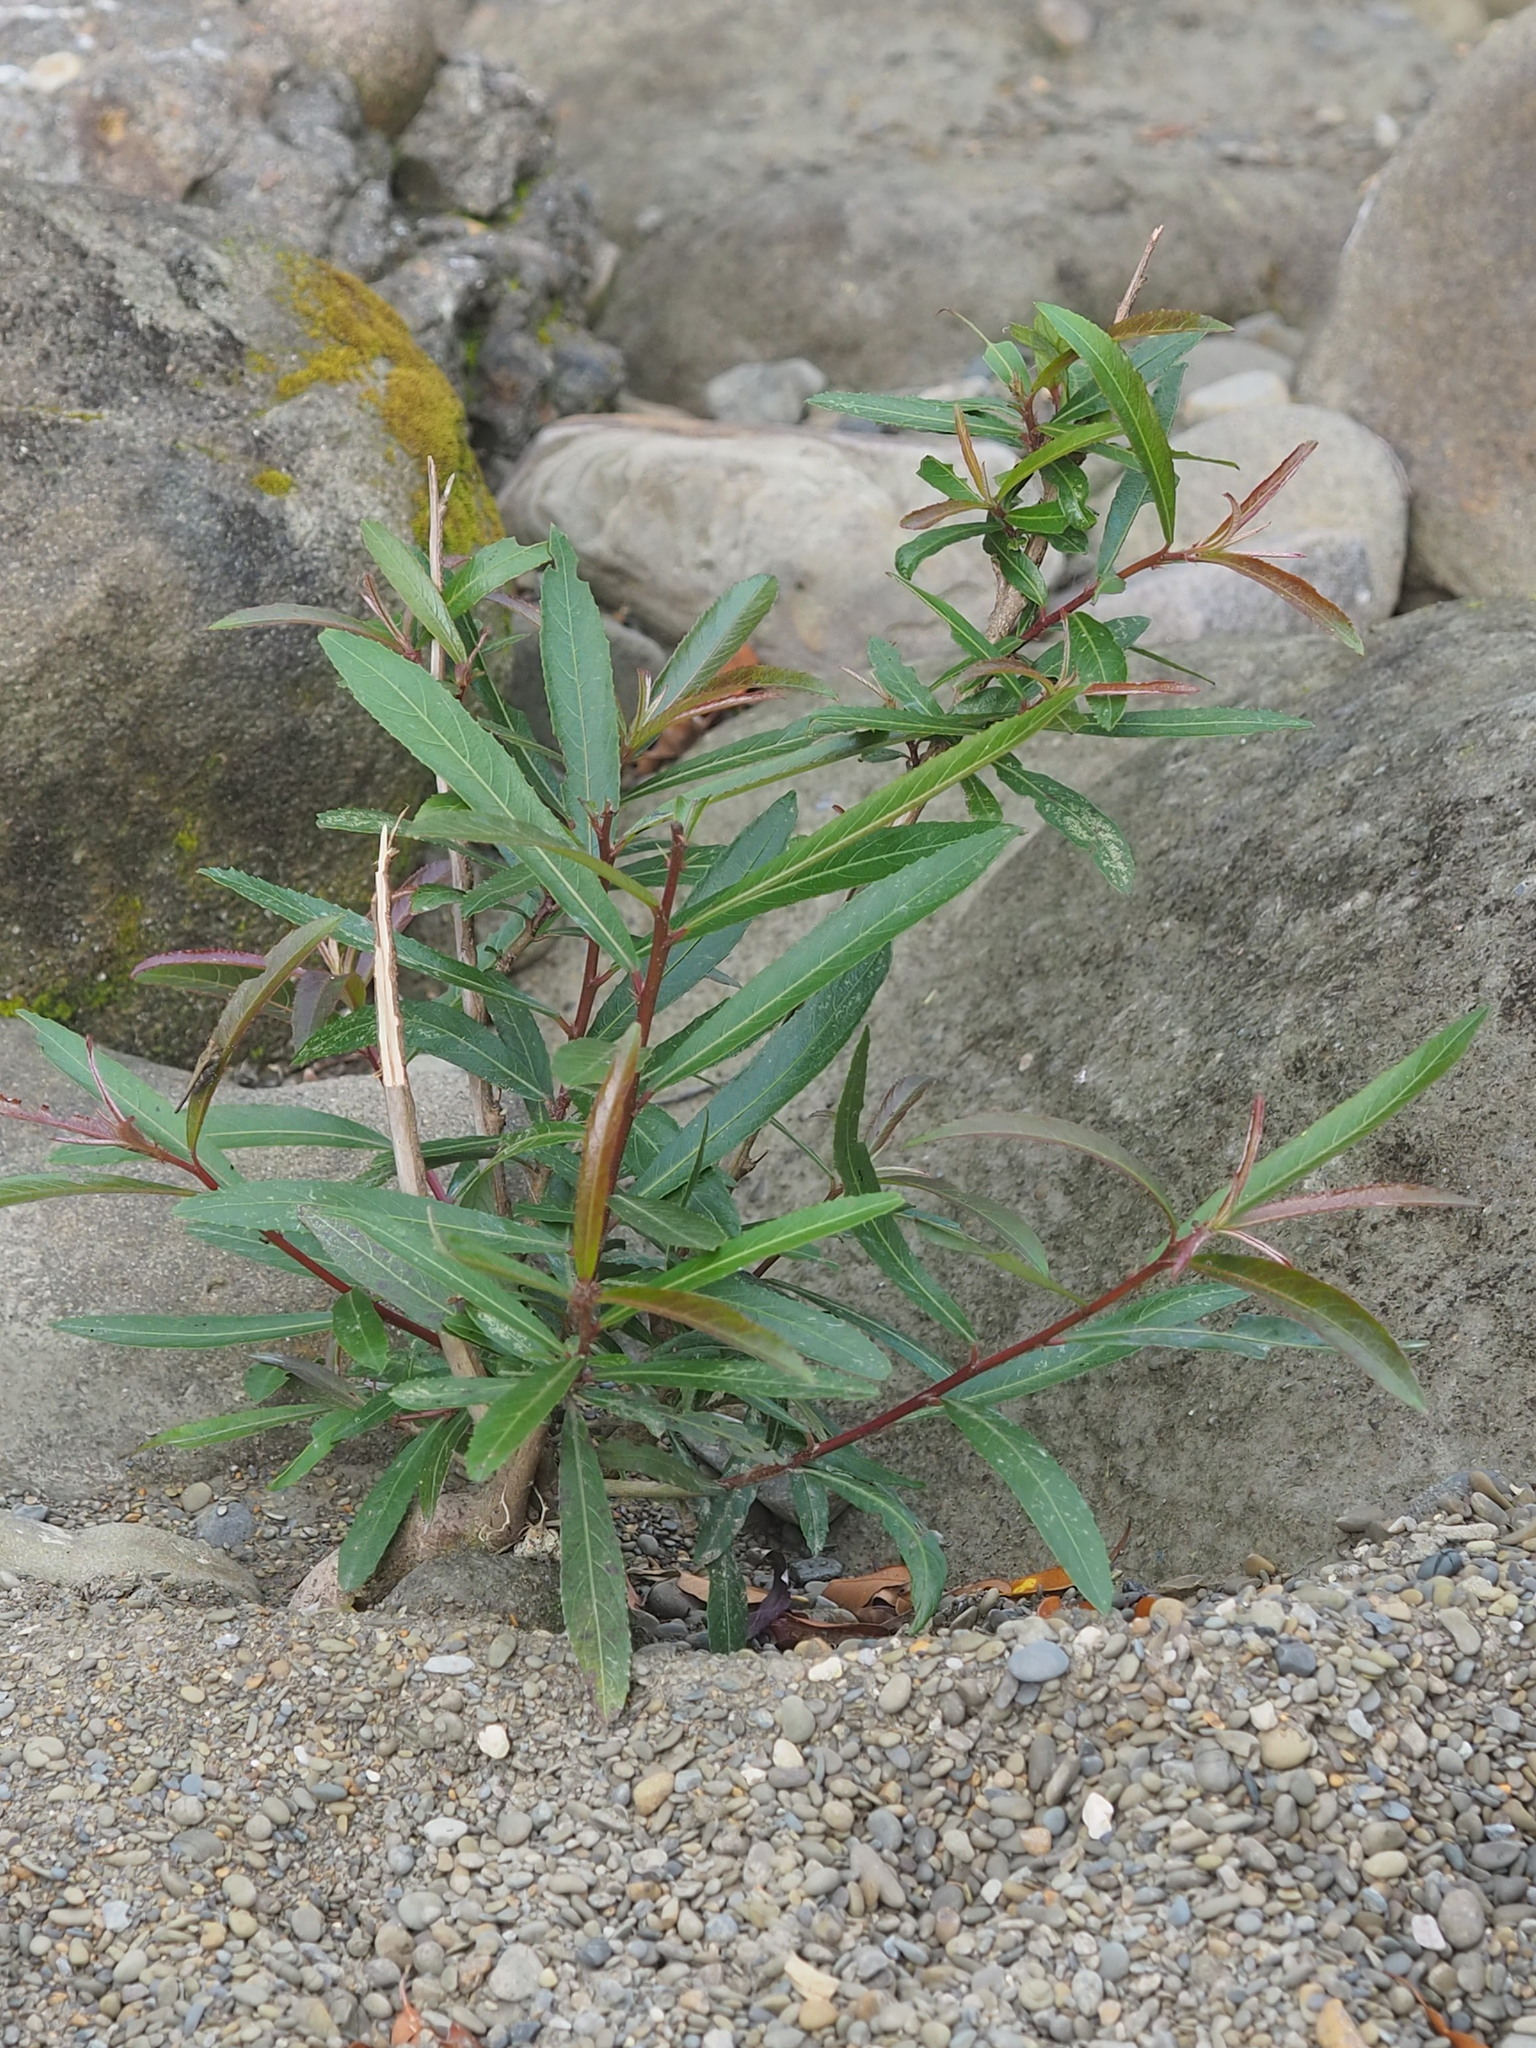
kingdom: Plantae
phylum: Tracheophyta
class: Magnoliopsida
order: Malpighiales
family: Euphorbiaceae
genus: Homonoia
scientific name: Homonoia riparia
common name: Willow-leaved water croton
